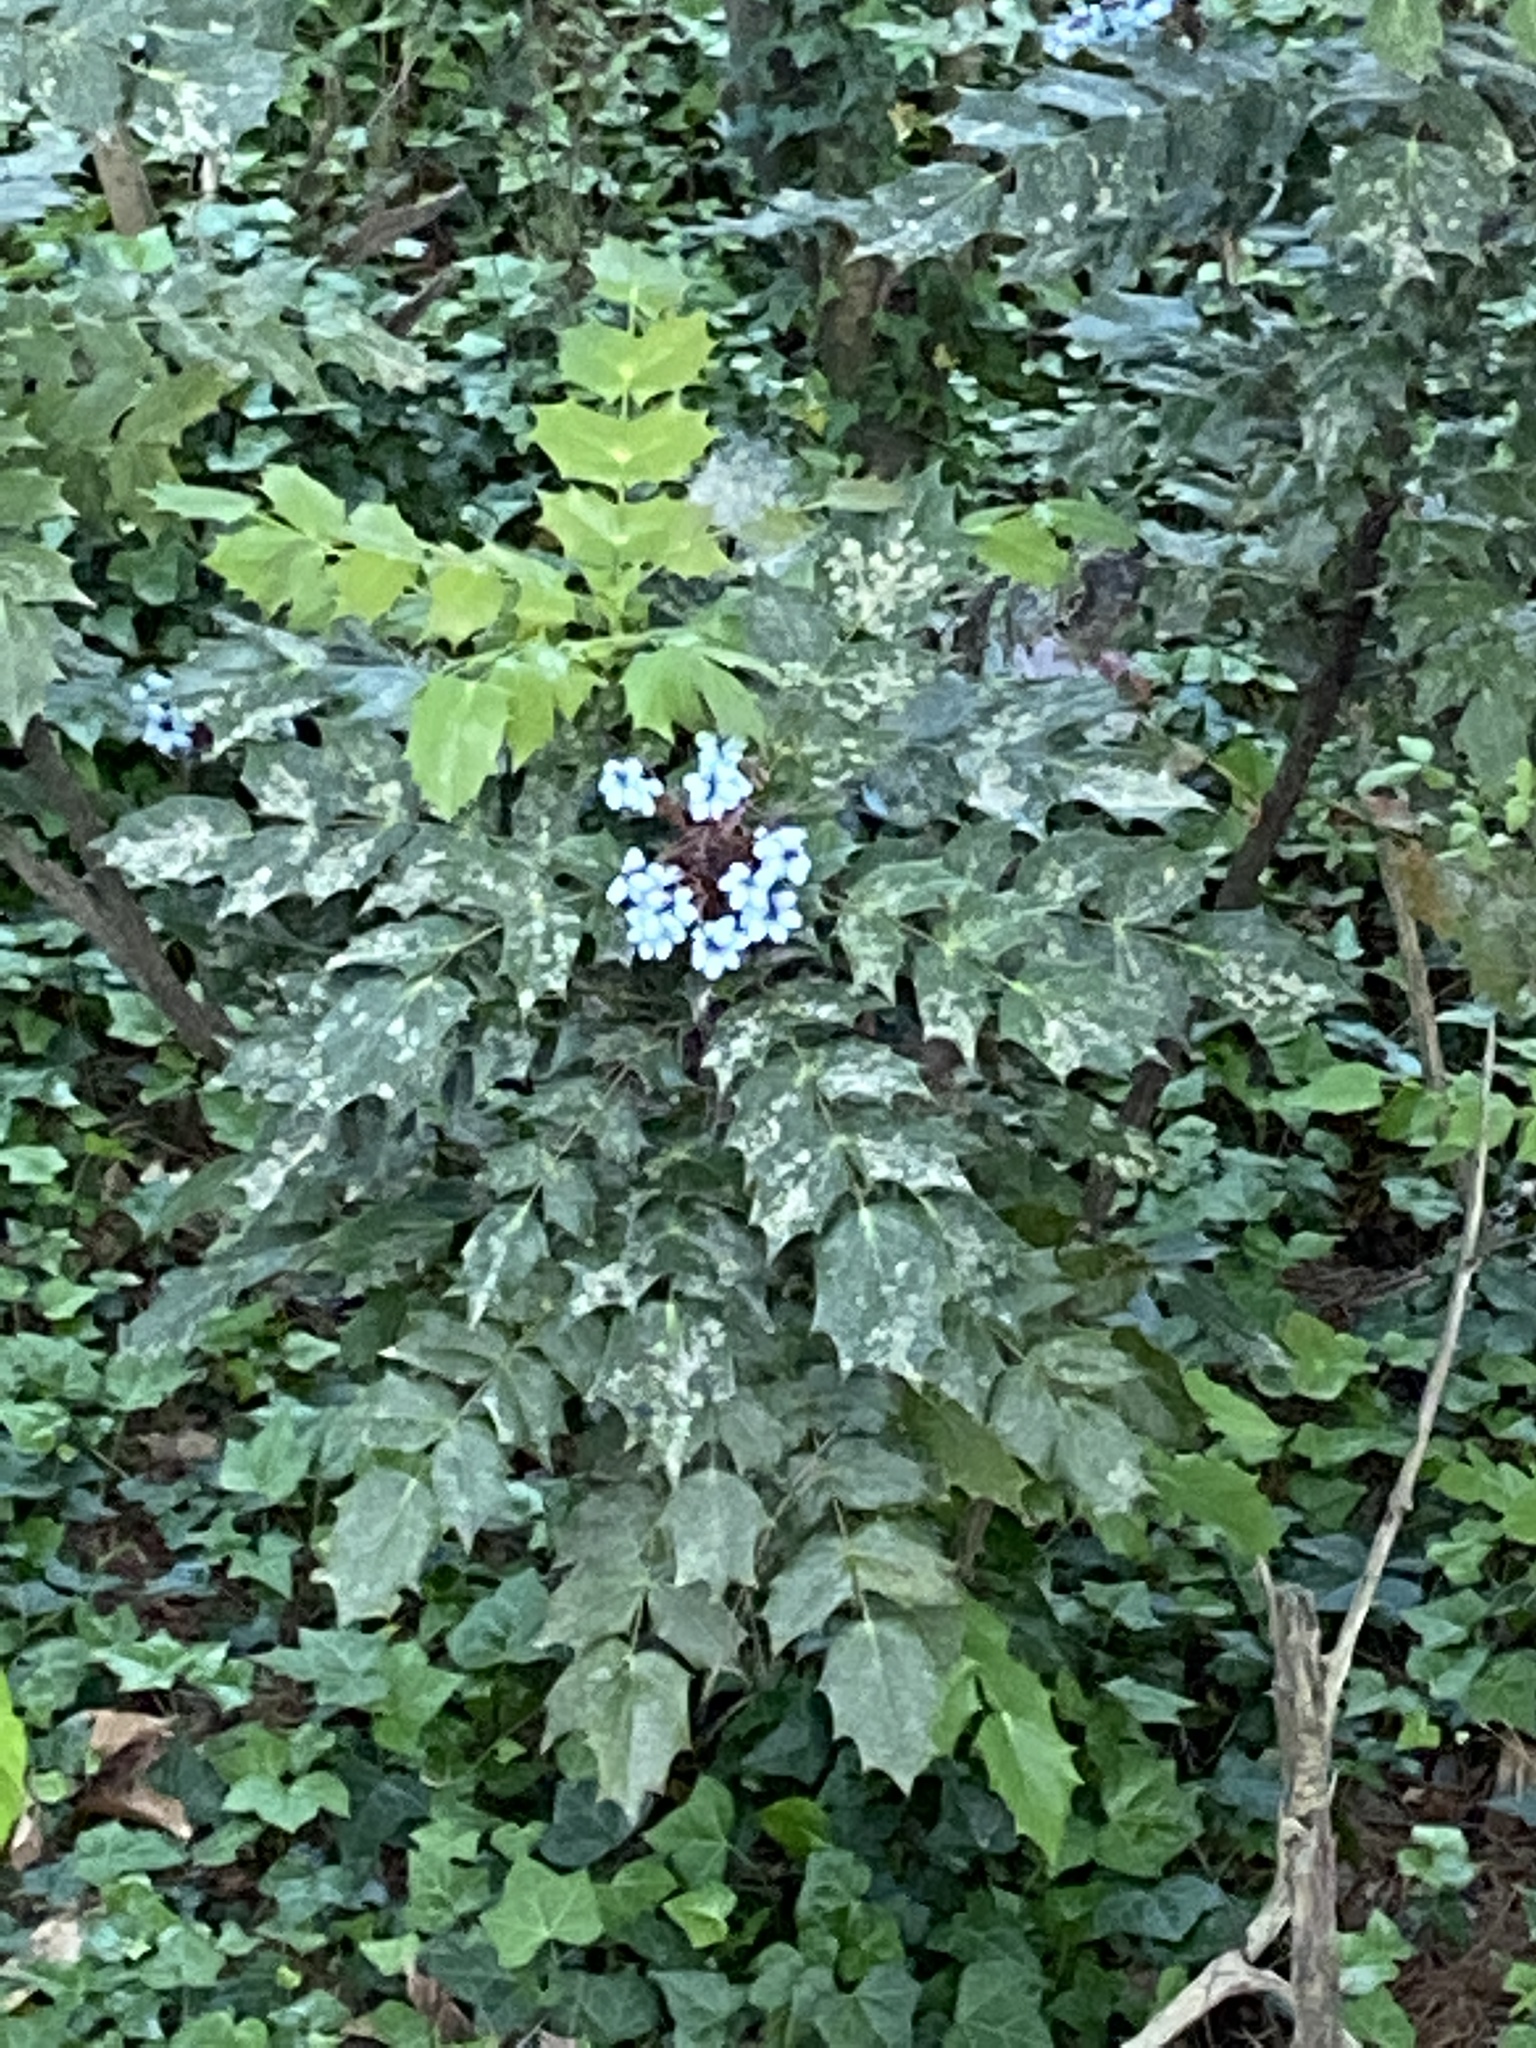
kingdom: Plantae
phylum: Tracheophyta
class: Magnoliopsida
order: Ranunculales
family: Berberidaceae
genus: Mahonia
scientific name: Mahonia bealei
